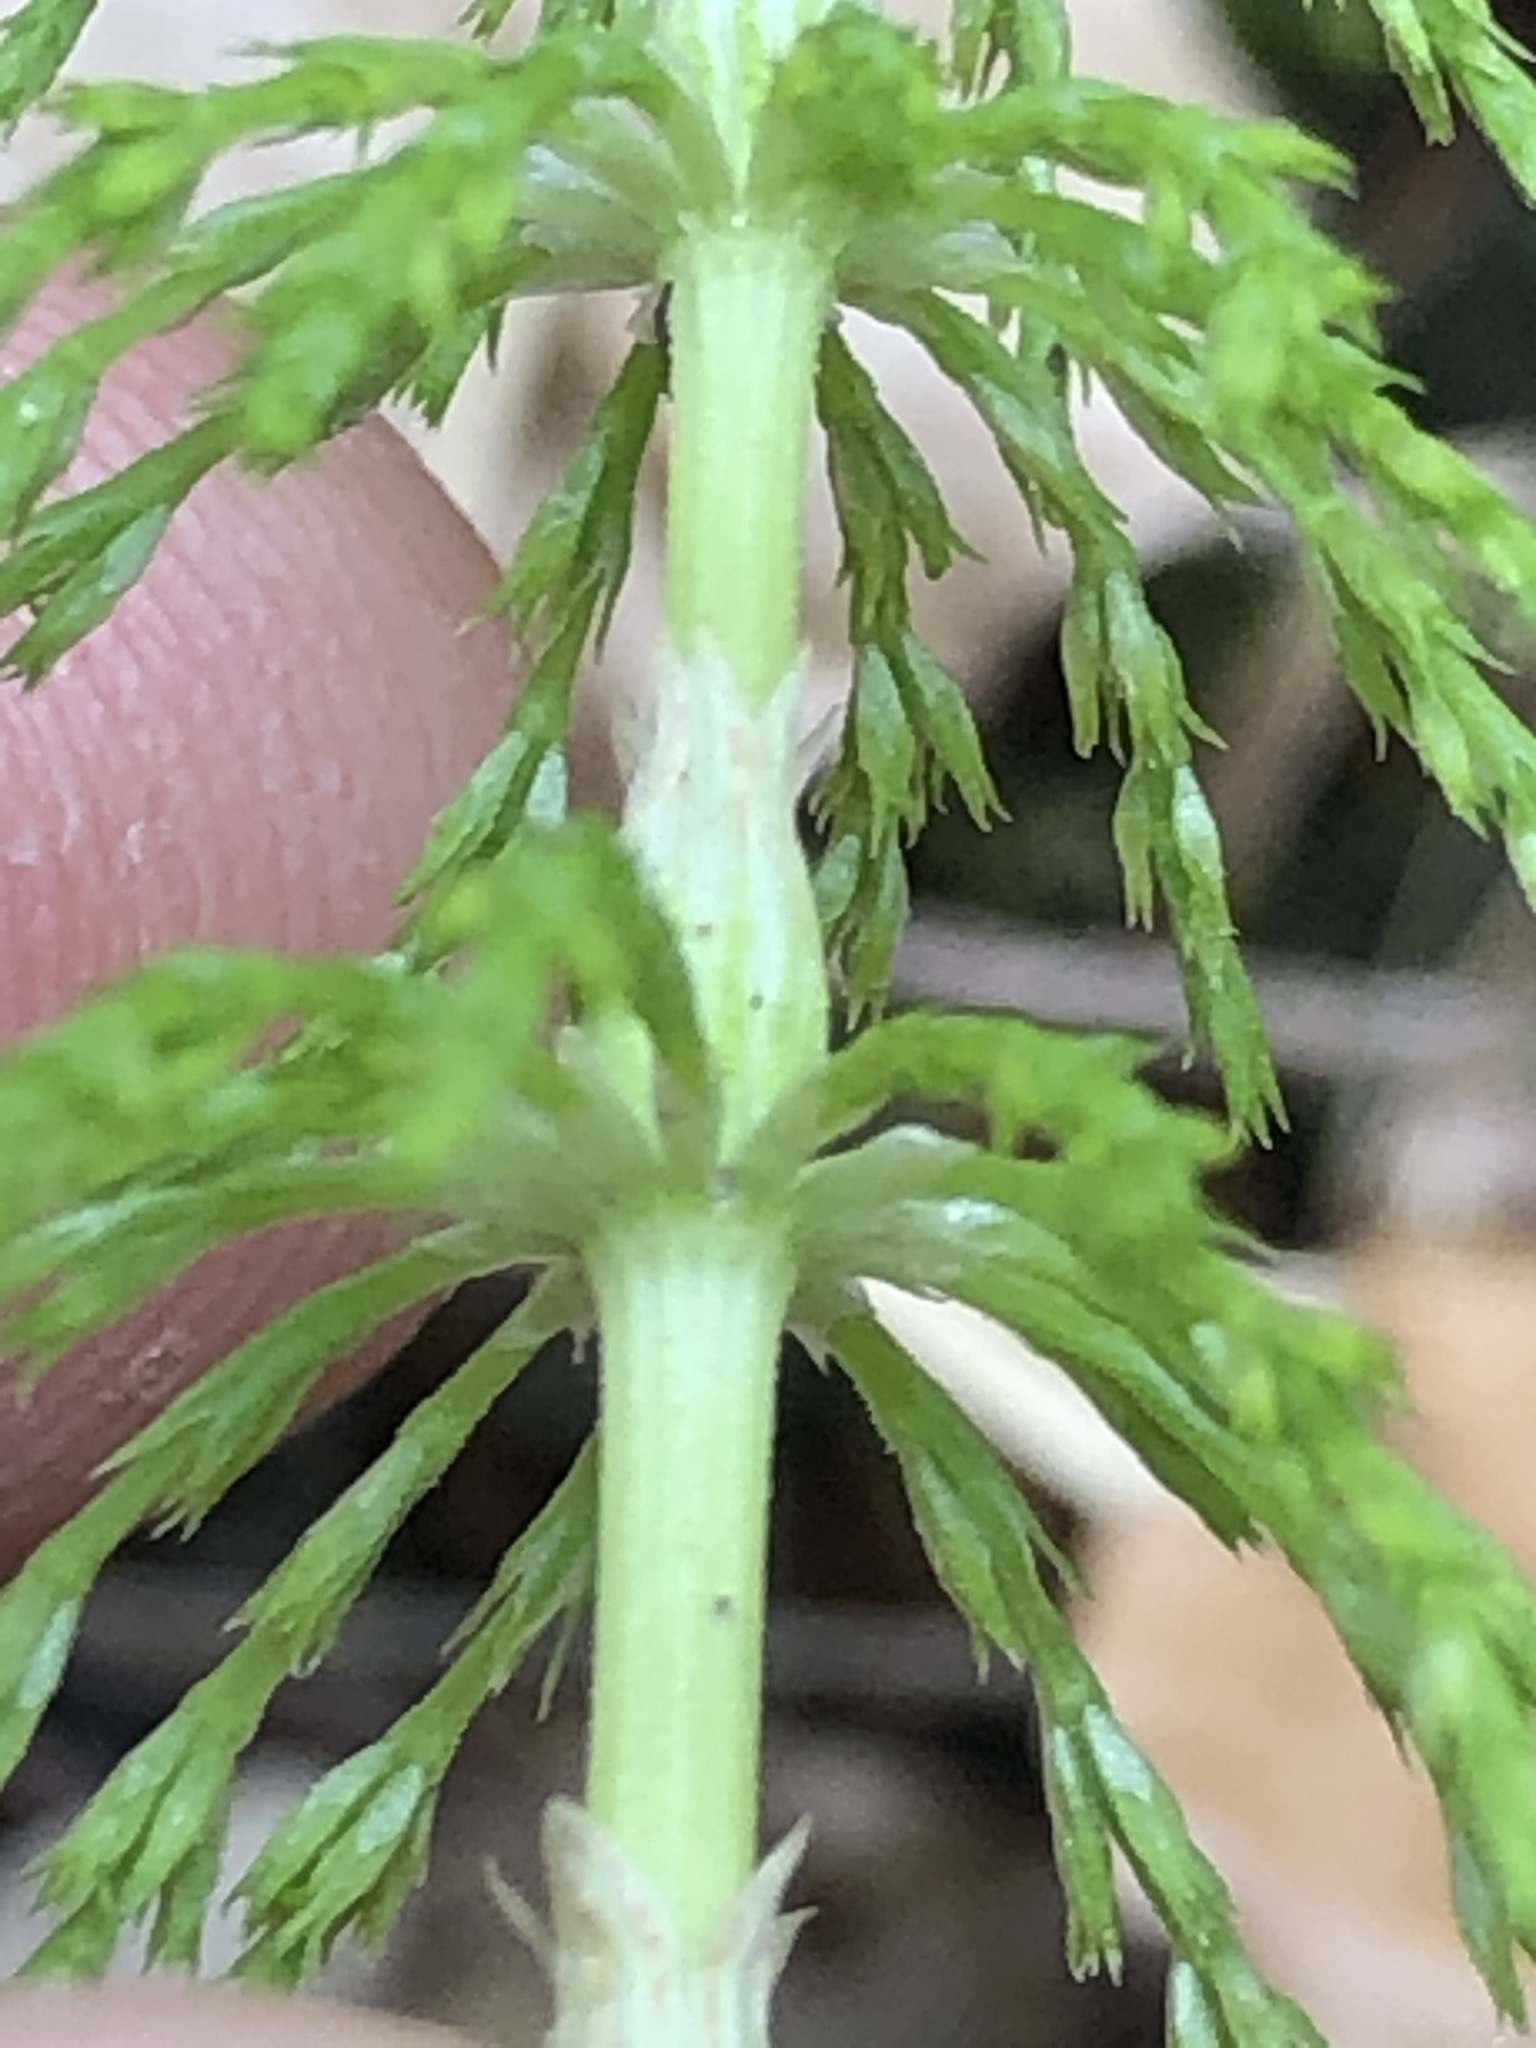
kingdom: Plantae
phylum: Tracheophyta
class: Polypodiopsida
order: Equisetales
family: Equisetaceae
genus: Equisetum
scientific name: Equisetum sylvaticum
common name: Wood horsetail
